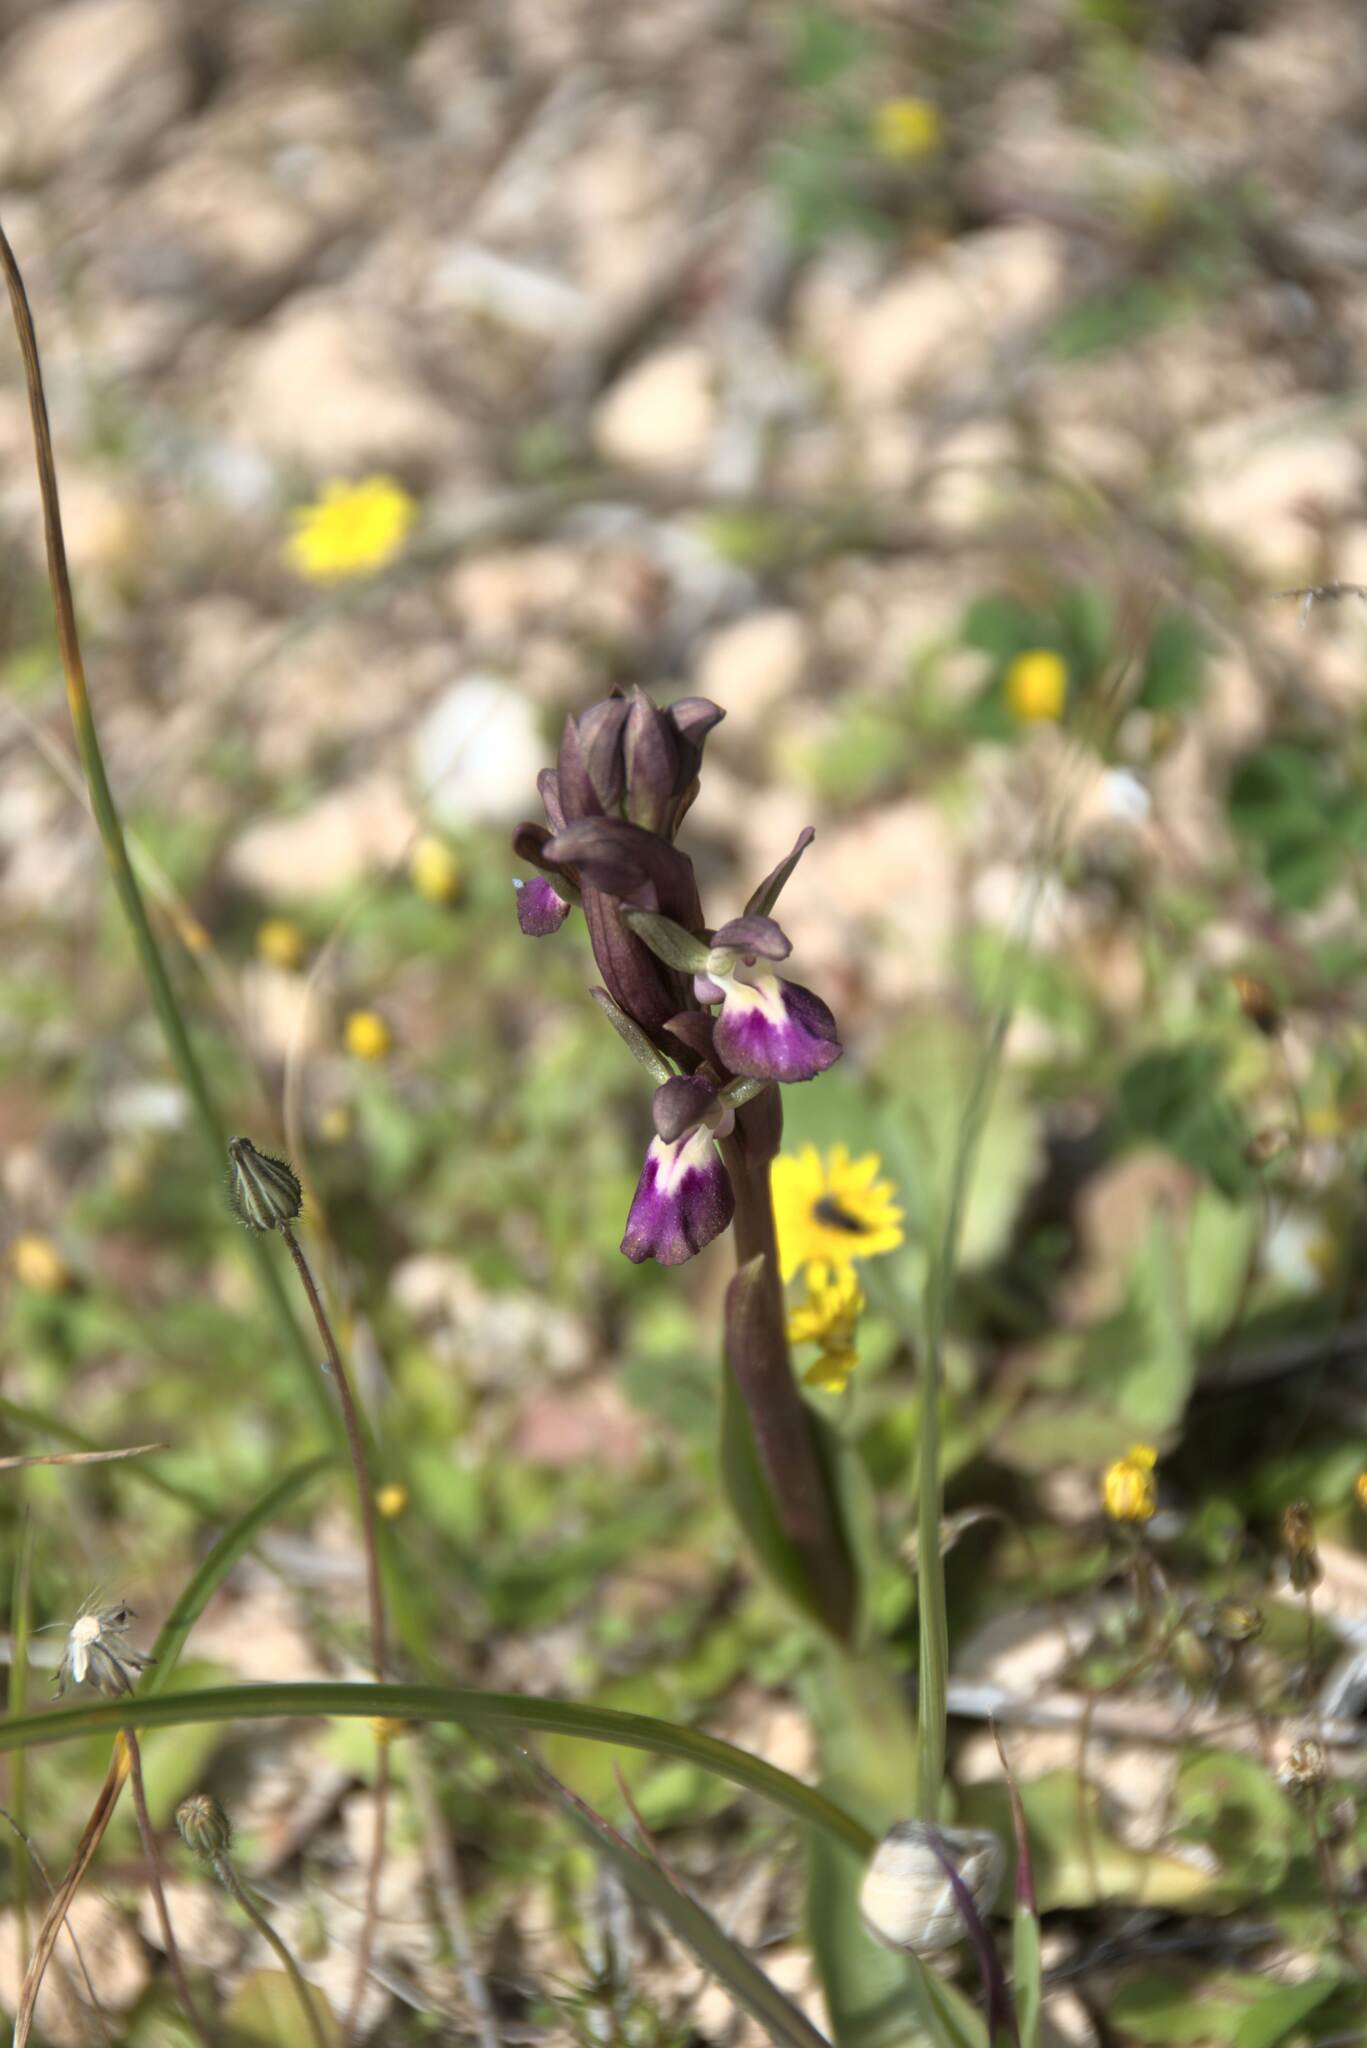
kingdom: Plantae
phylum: Tracheophyta
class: Liliopsida
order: Asparagales
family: Orchidaceae
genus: Anacamptis
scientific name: Anacamptis collina
